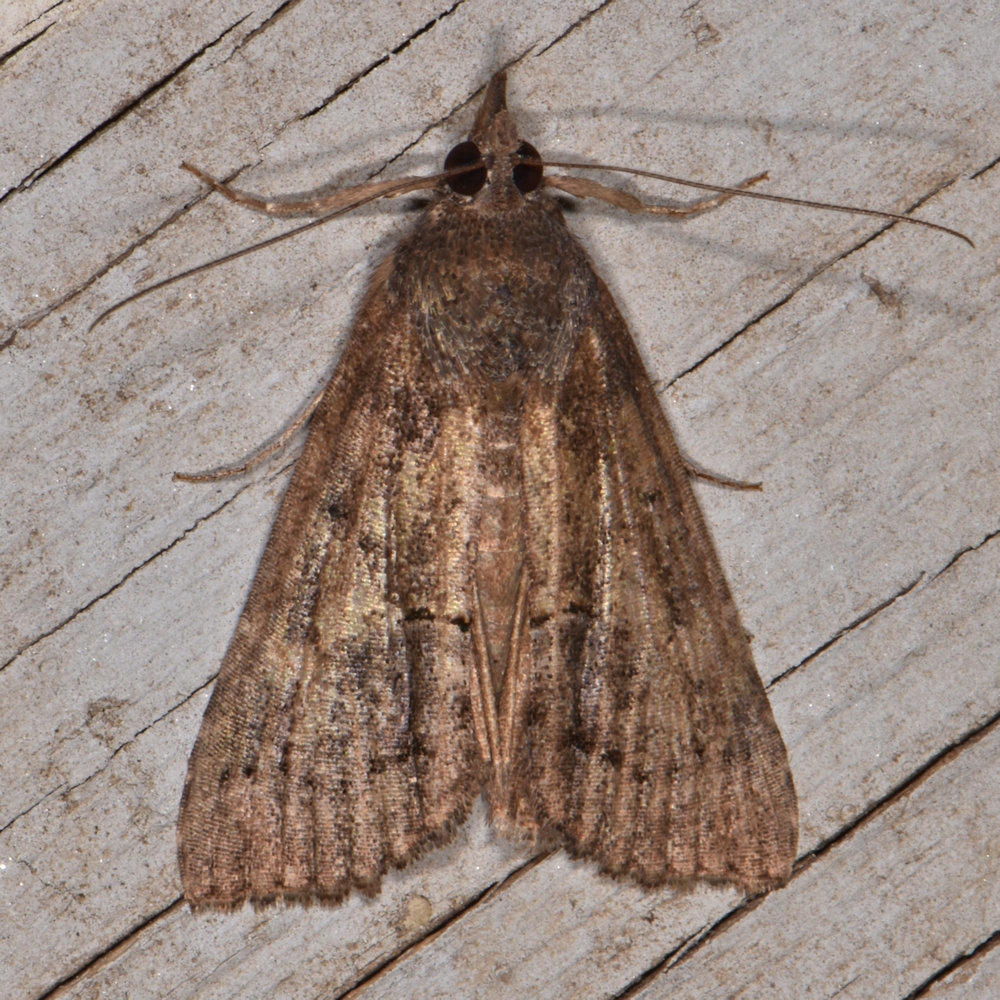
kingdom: Animalia
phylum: Arthropoda
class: Insecta
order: Lepidoptera
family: Erebidae
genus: Hypena
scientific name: Hypena scabra
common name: Green cloverworm
